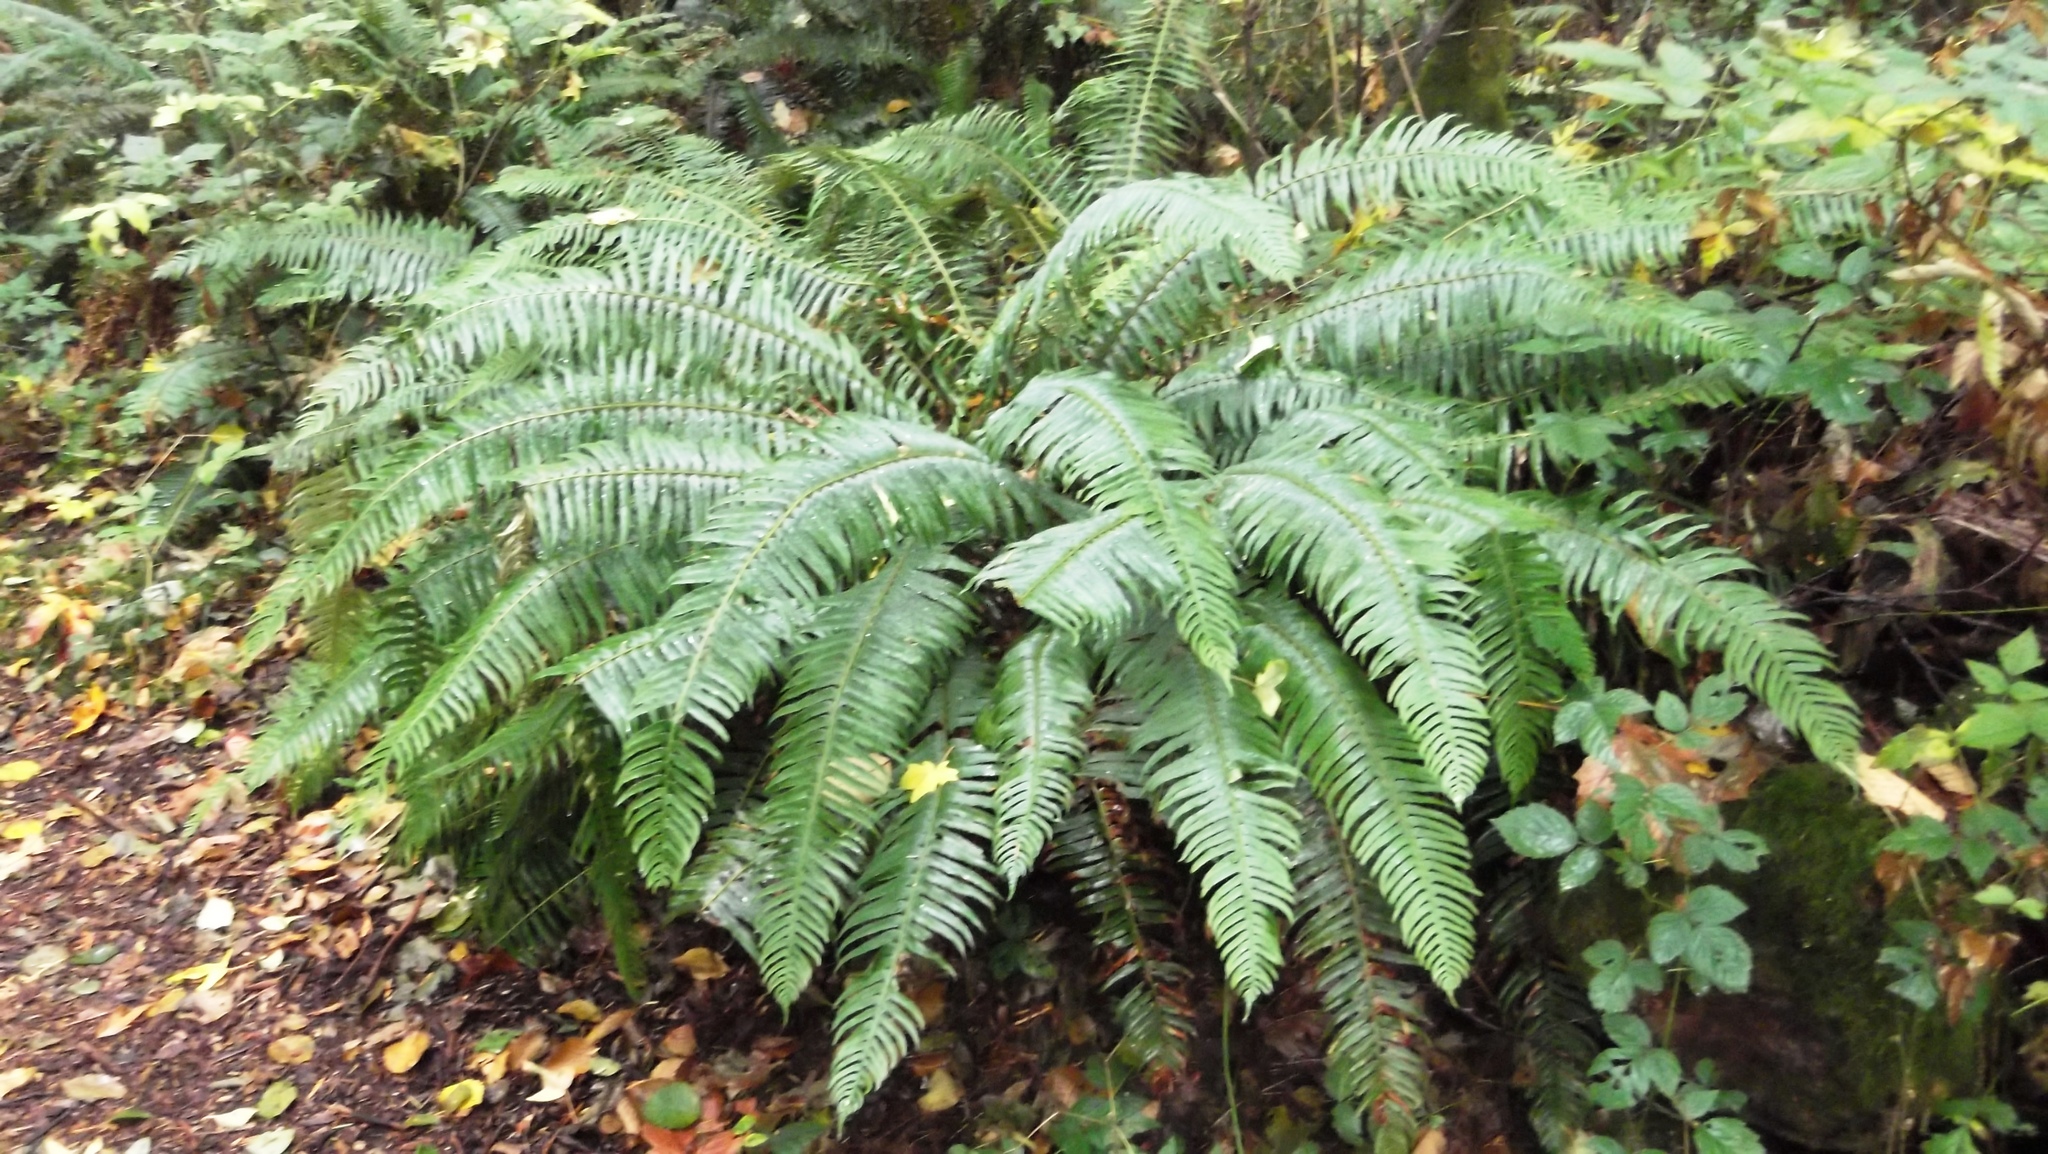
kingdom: Plantae
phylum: Tracheophyta
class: Polypodiopsida
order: Polypodiales
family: Dryopteridaceae
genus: Polystichum
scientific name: Polystichum munitum
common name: Western sword-fern
